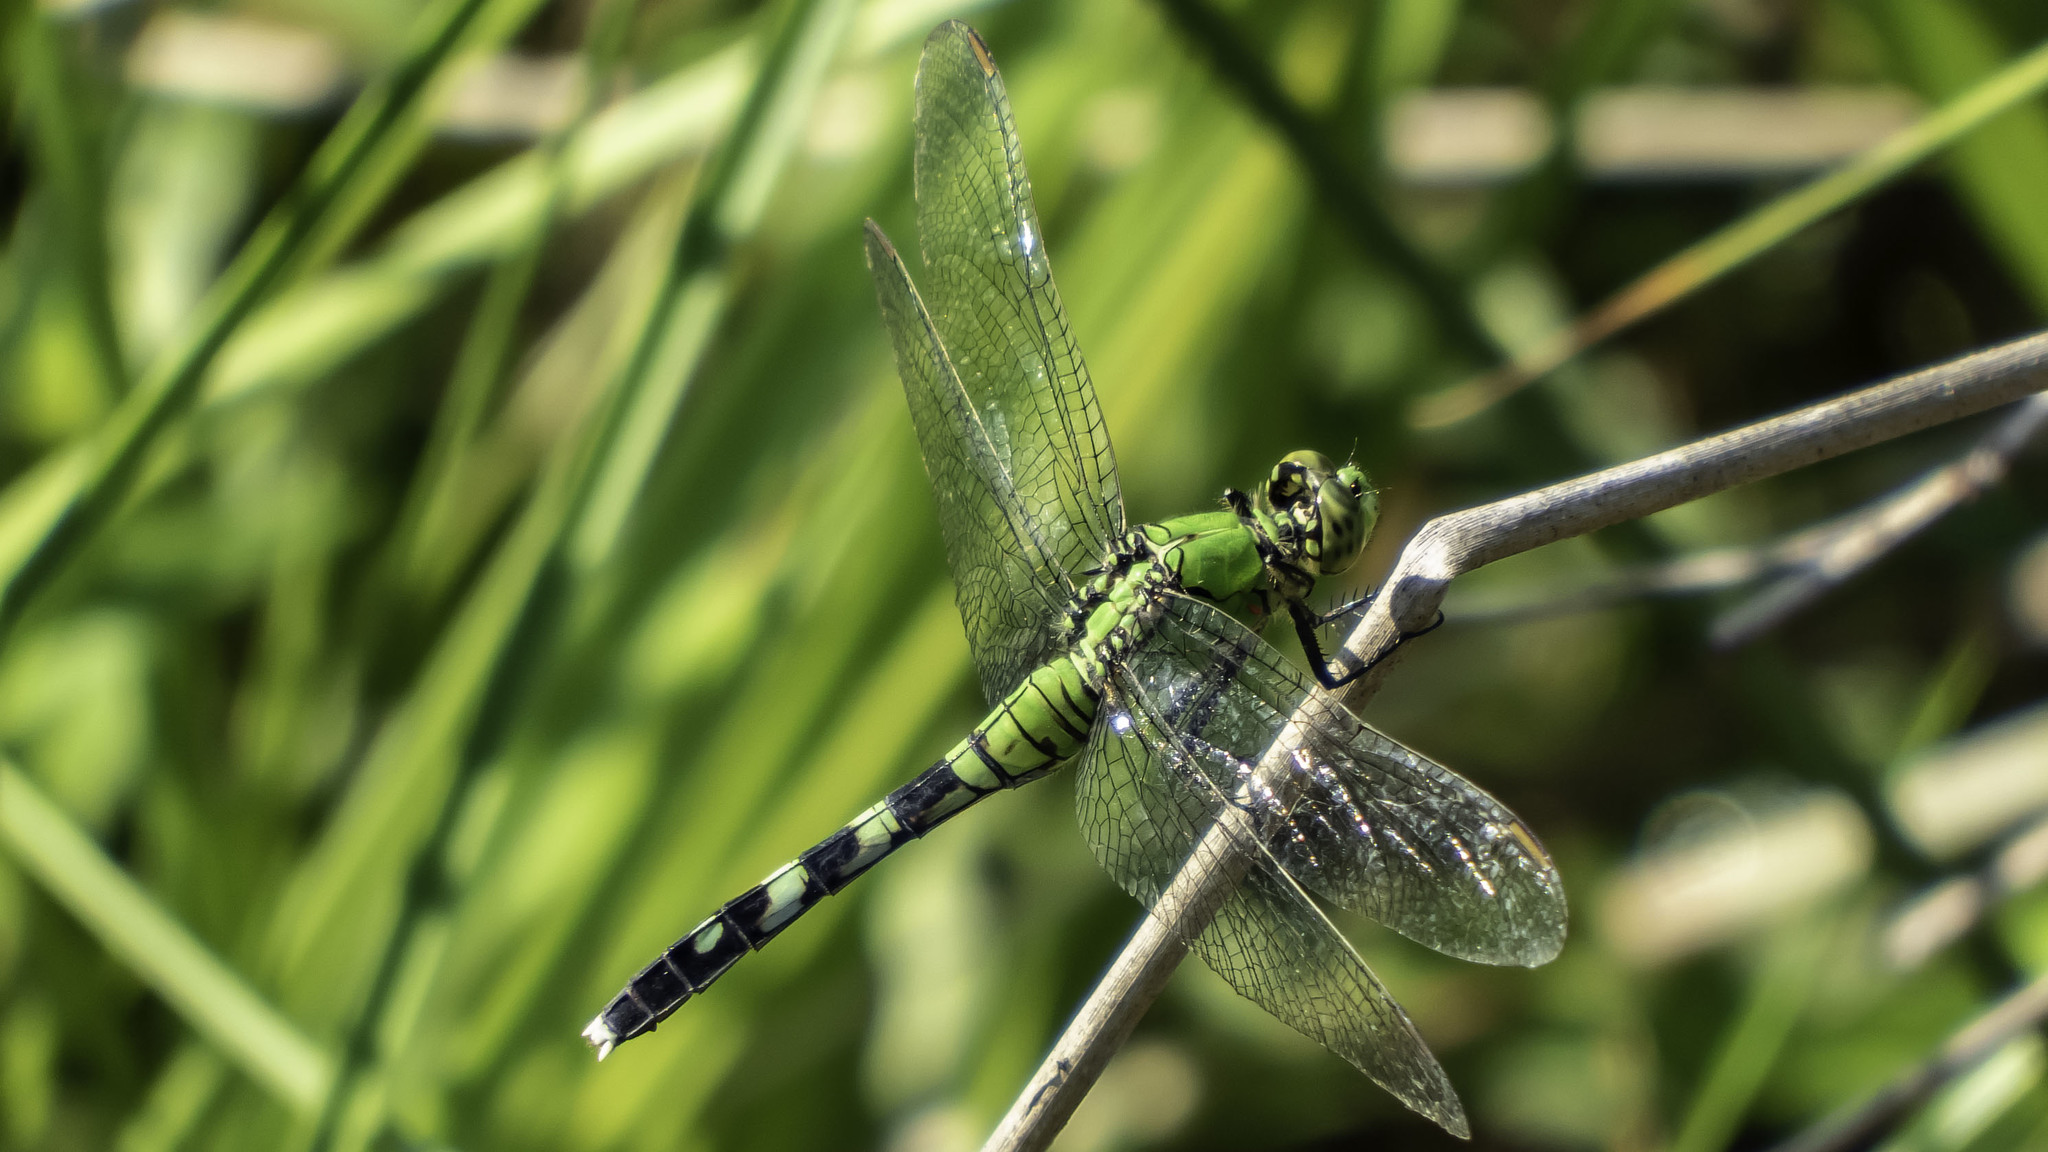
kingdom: Animalia
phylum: Arthropoda
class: Insecta
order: Odonata
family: Libellulidae
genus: Erythemis
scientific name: Erythemis simplicicollis
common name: Eastern pondhawk
